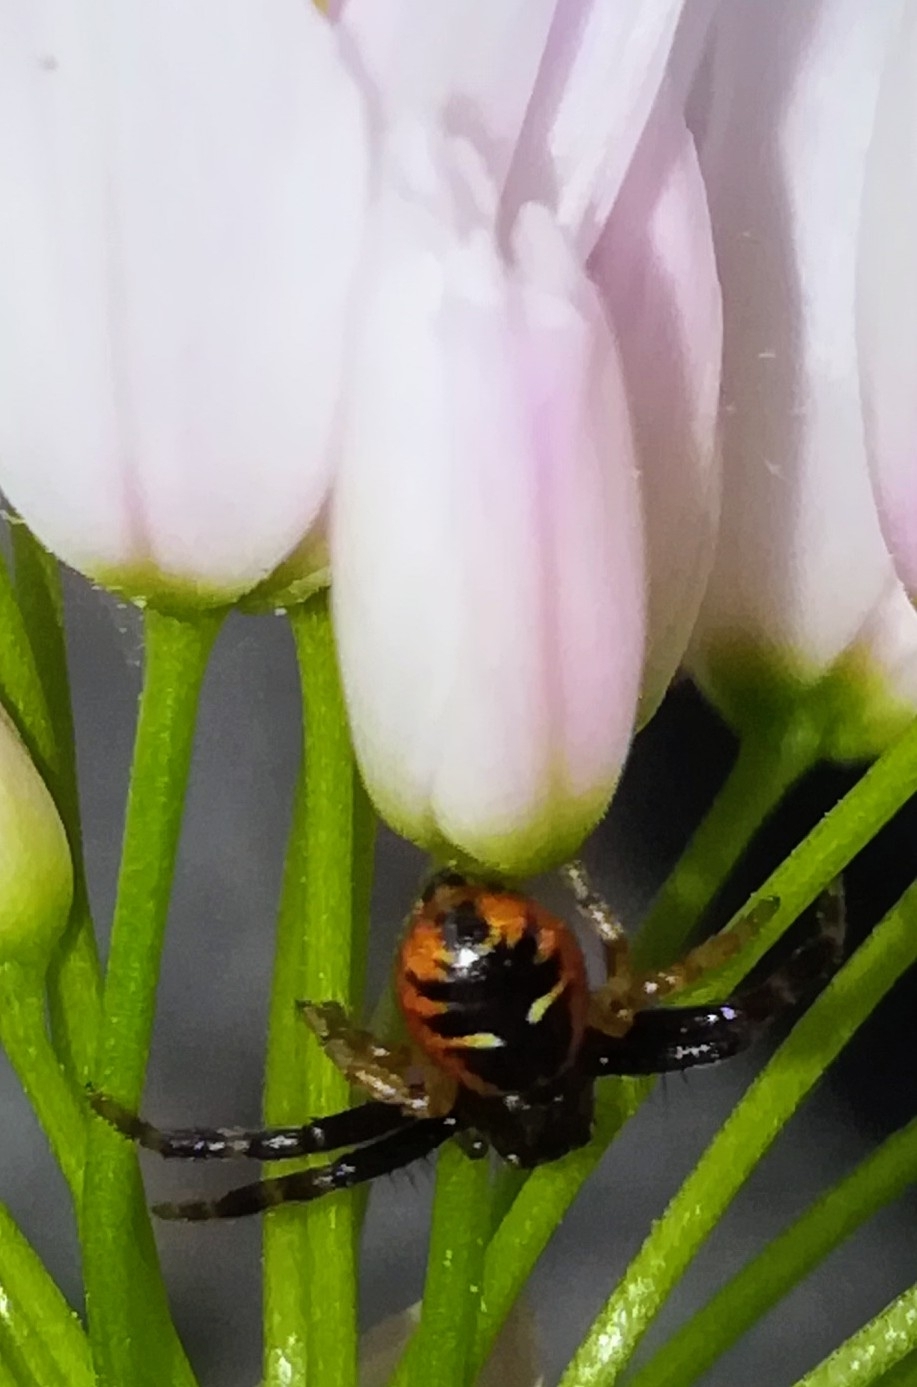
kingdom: Animalia
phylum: Arthropoda
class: Arachnida
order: Araneae
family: Thomisidae
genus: Synema
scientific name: Synema globosum
